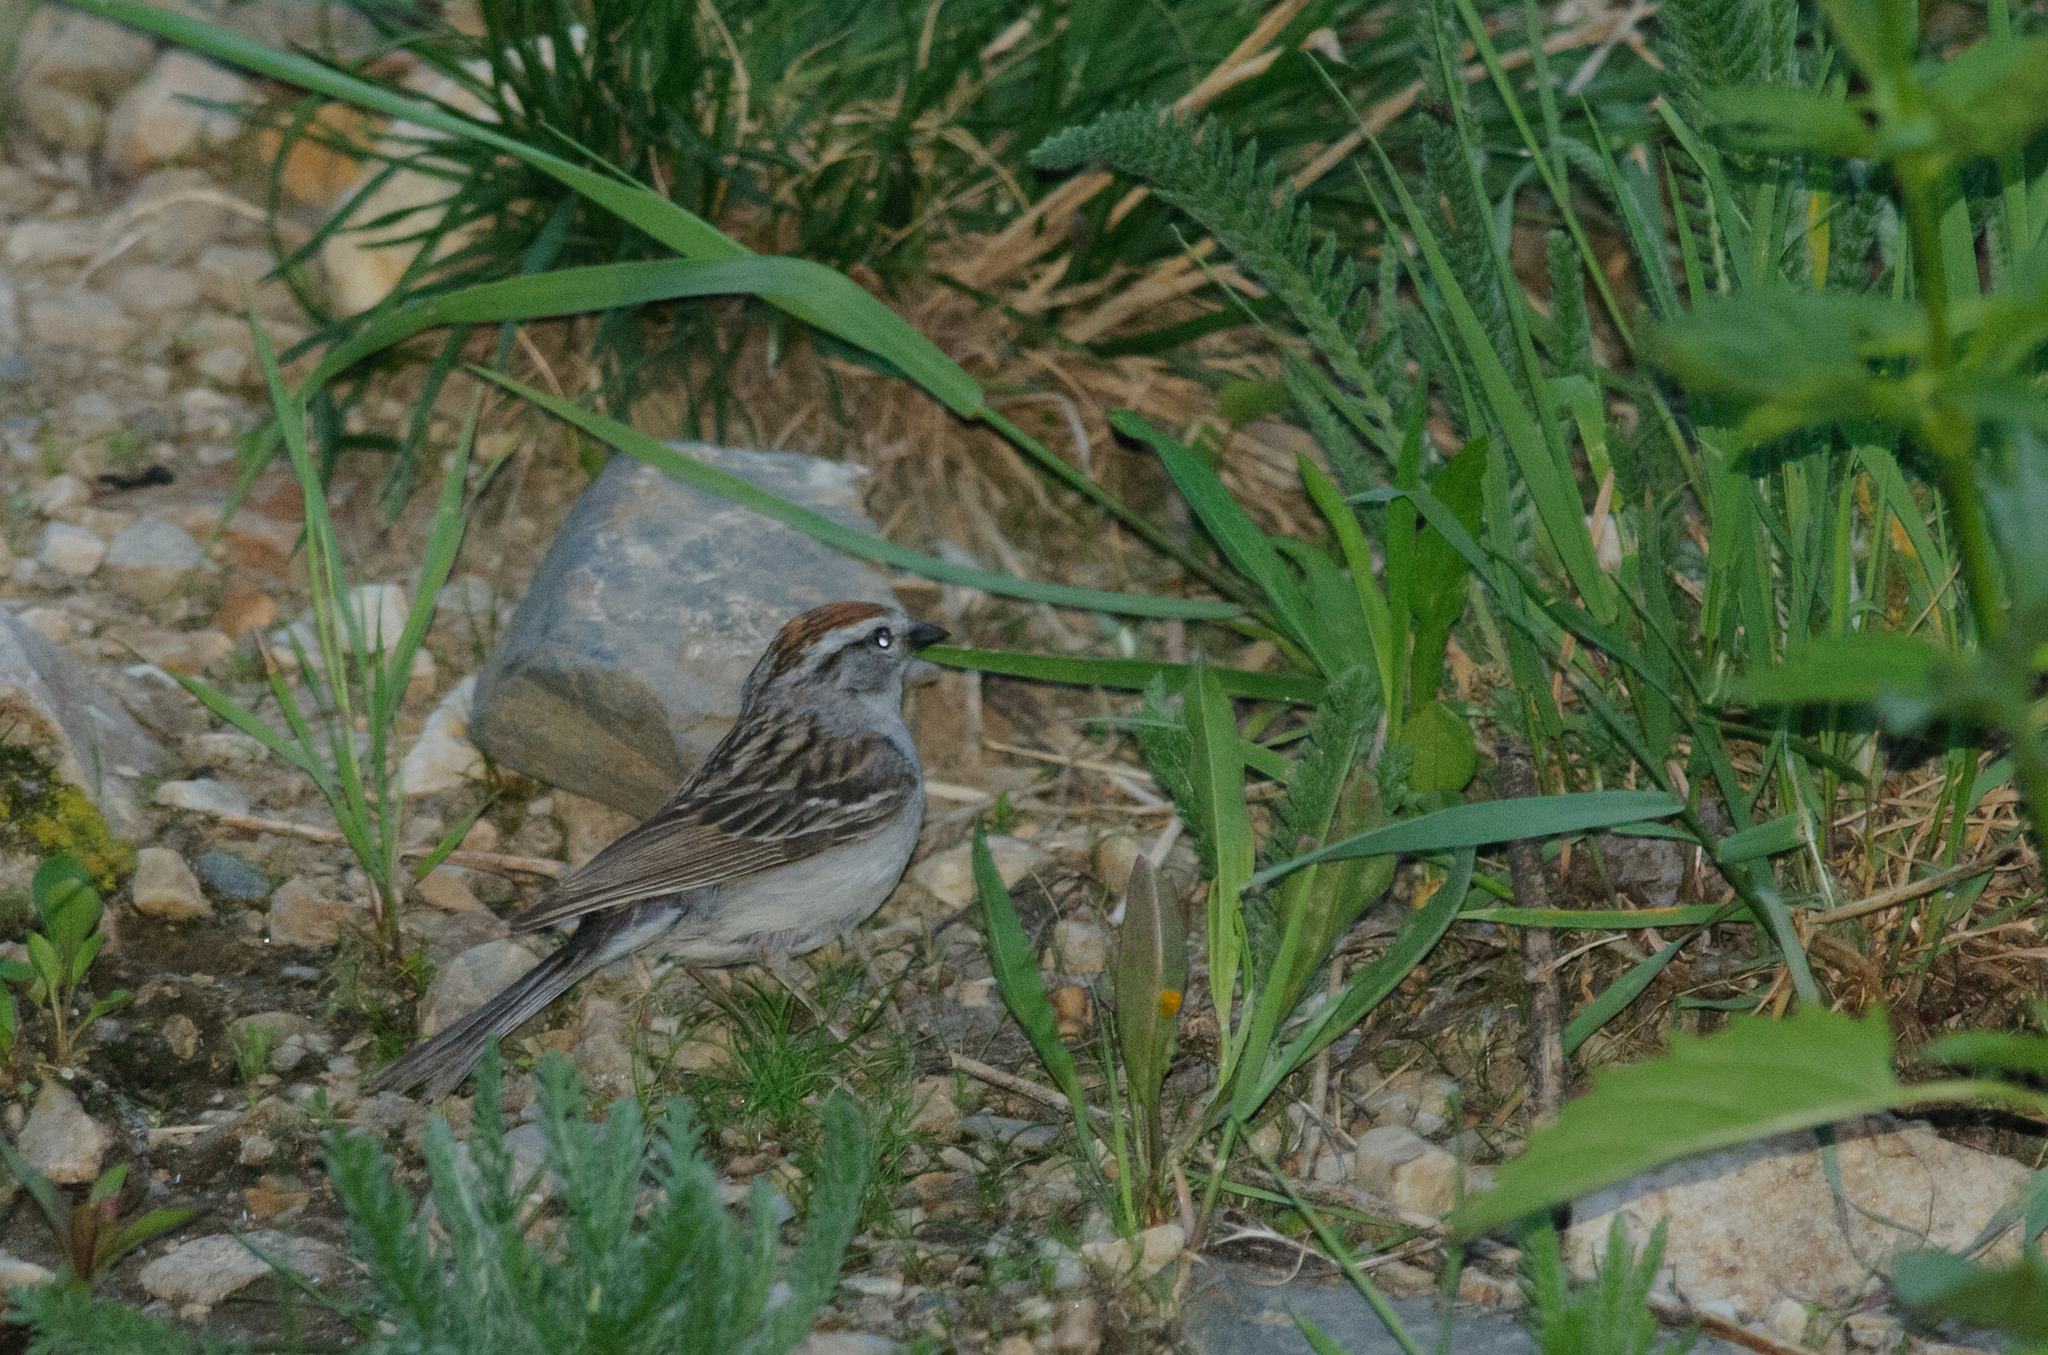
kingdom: Animalia
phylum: Chordata
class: Aves
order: Passeriformes
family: Passerellidae
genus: Spizella
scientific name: Spizella passerina
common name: Chipping sparrow
